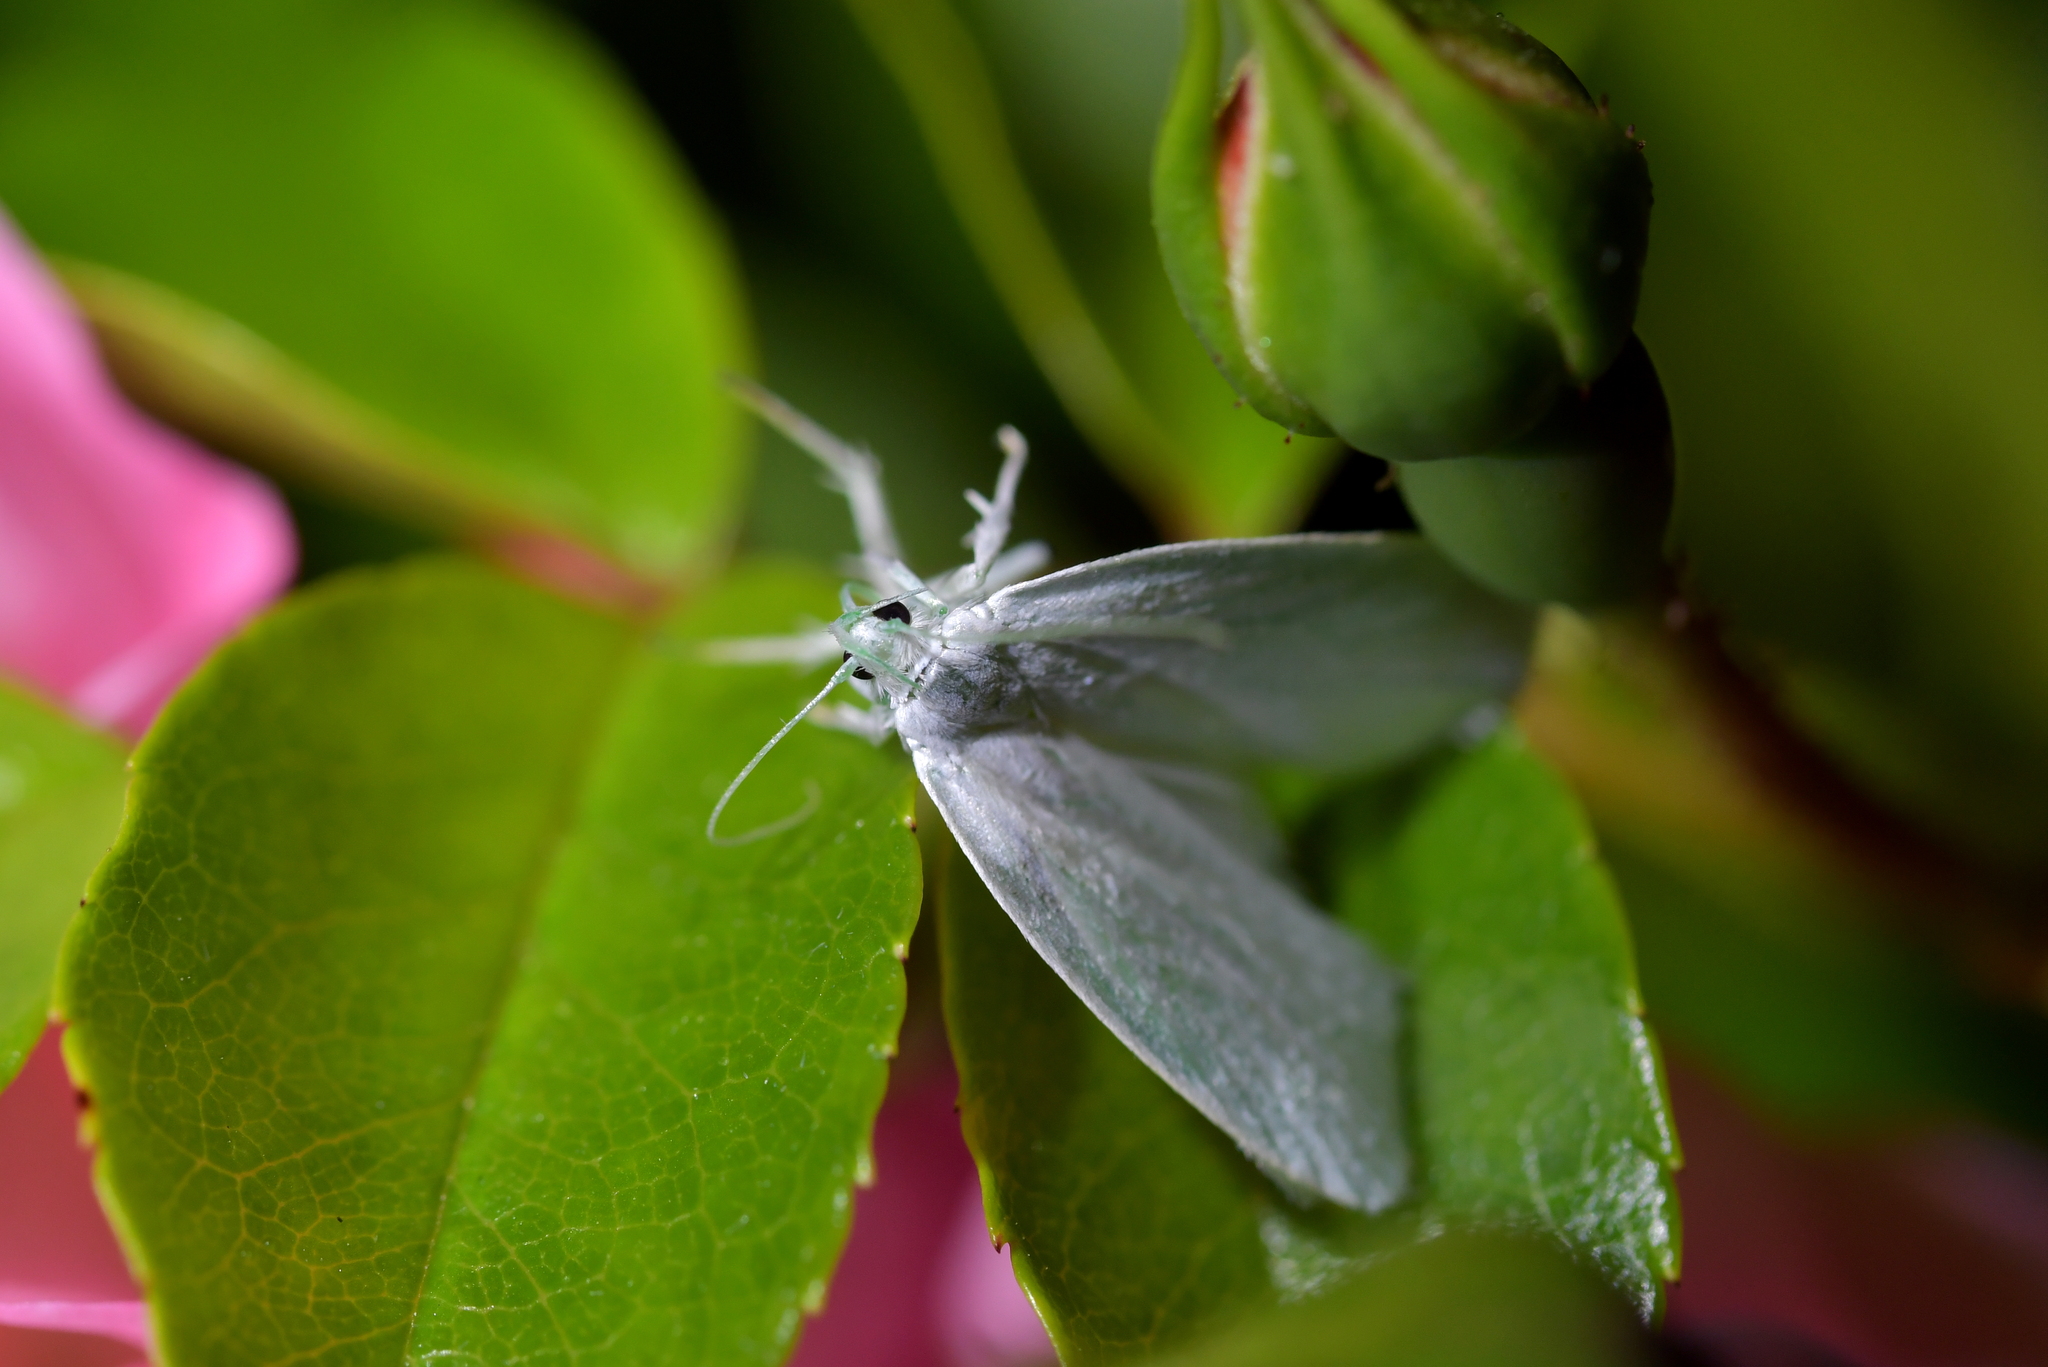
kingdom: Animalia
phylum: Arthropoda
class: Insecta
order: Lepidoptera
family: Oecophoridae
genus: Nymphostola
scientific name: Nymphostola galactina
